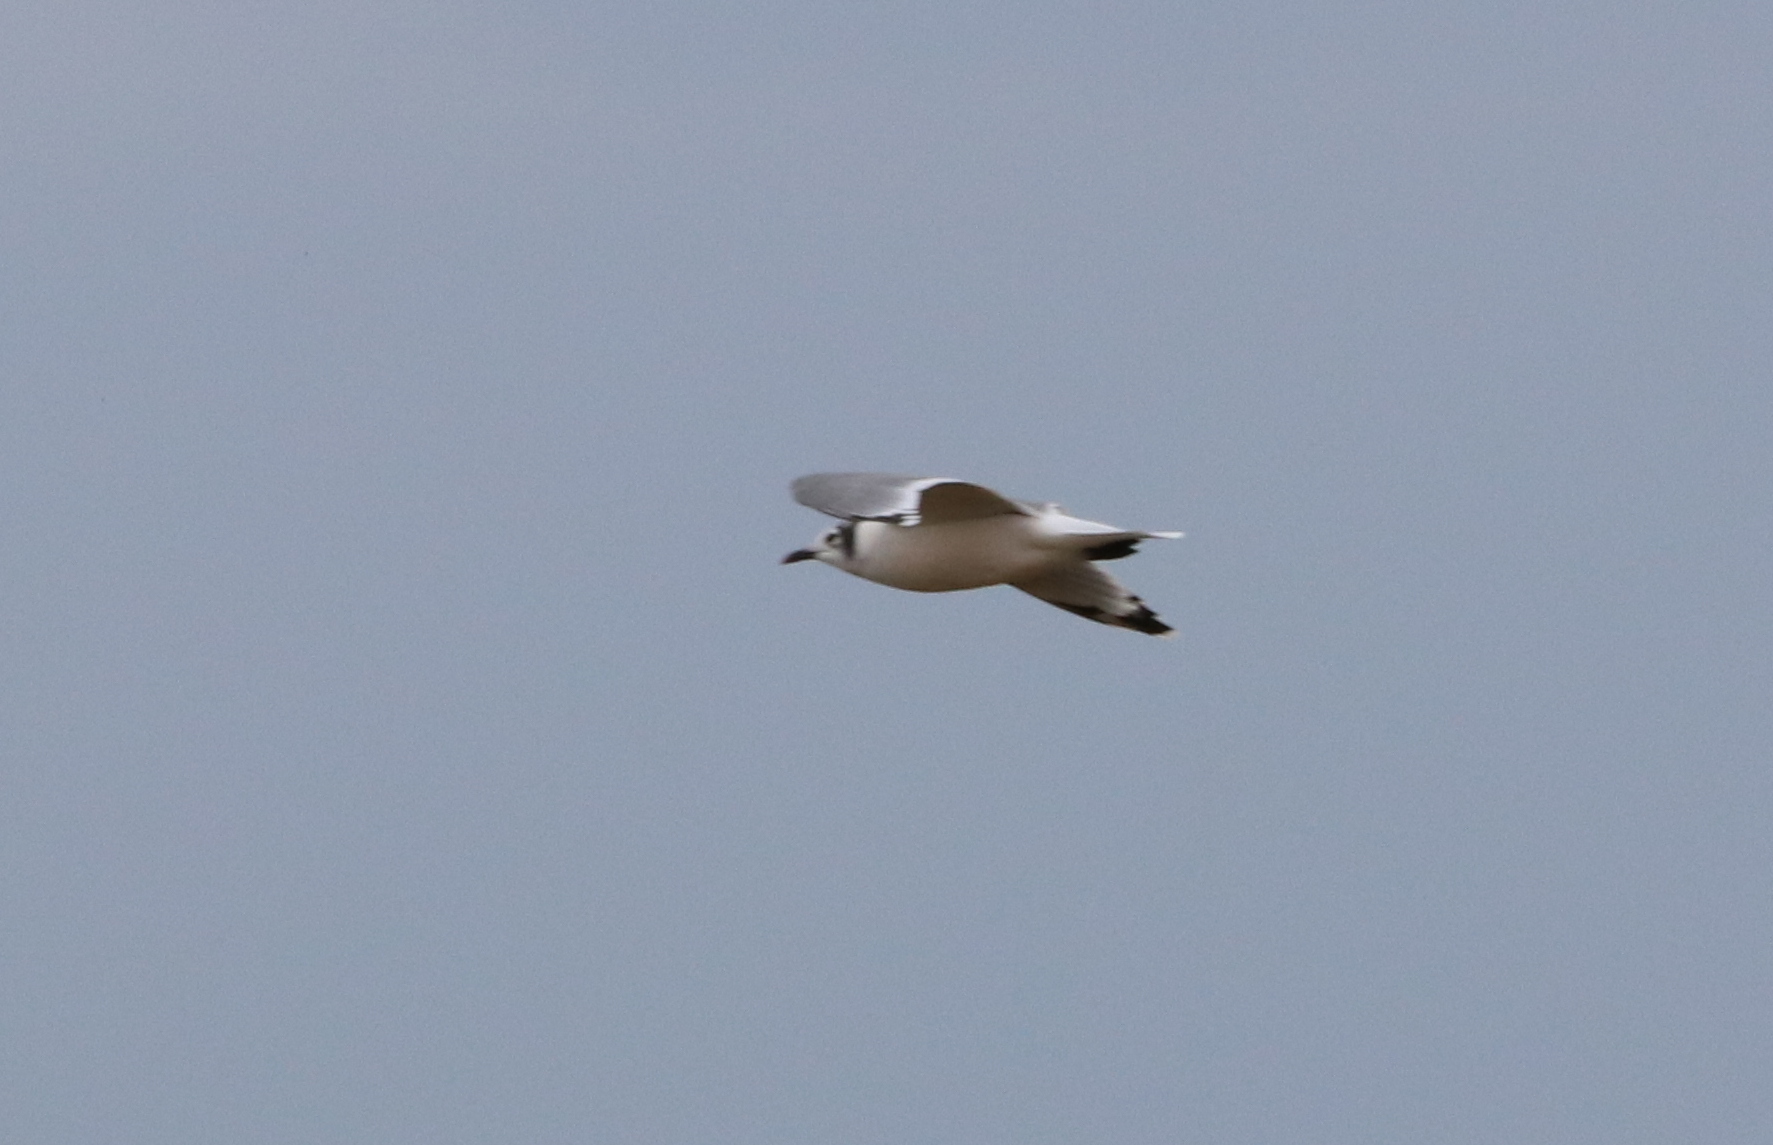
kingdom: Animalia
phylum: Chordata
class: Aves
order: Charadriiformes
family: Laridae
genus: Leucophaeus
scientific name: Leucophaeus pipixcan
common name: Franklin's gull
